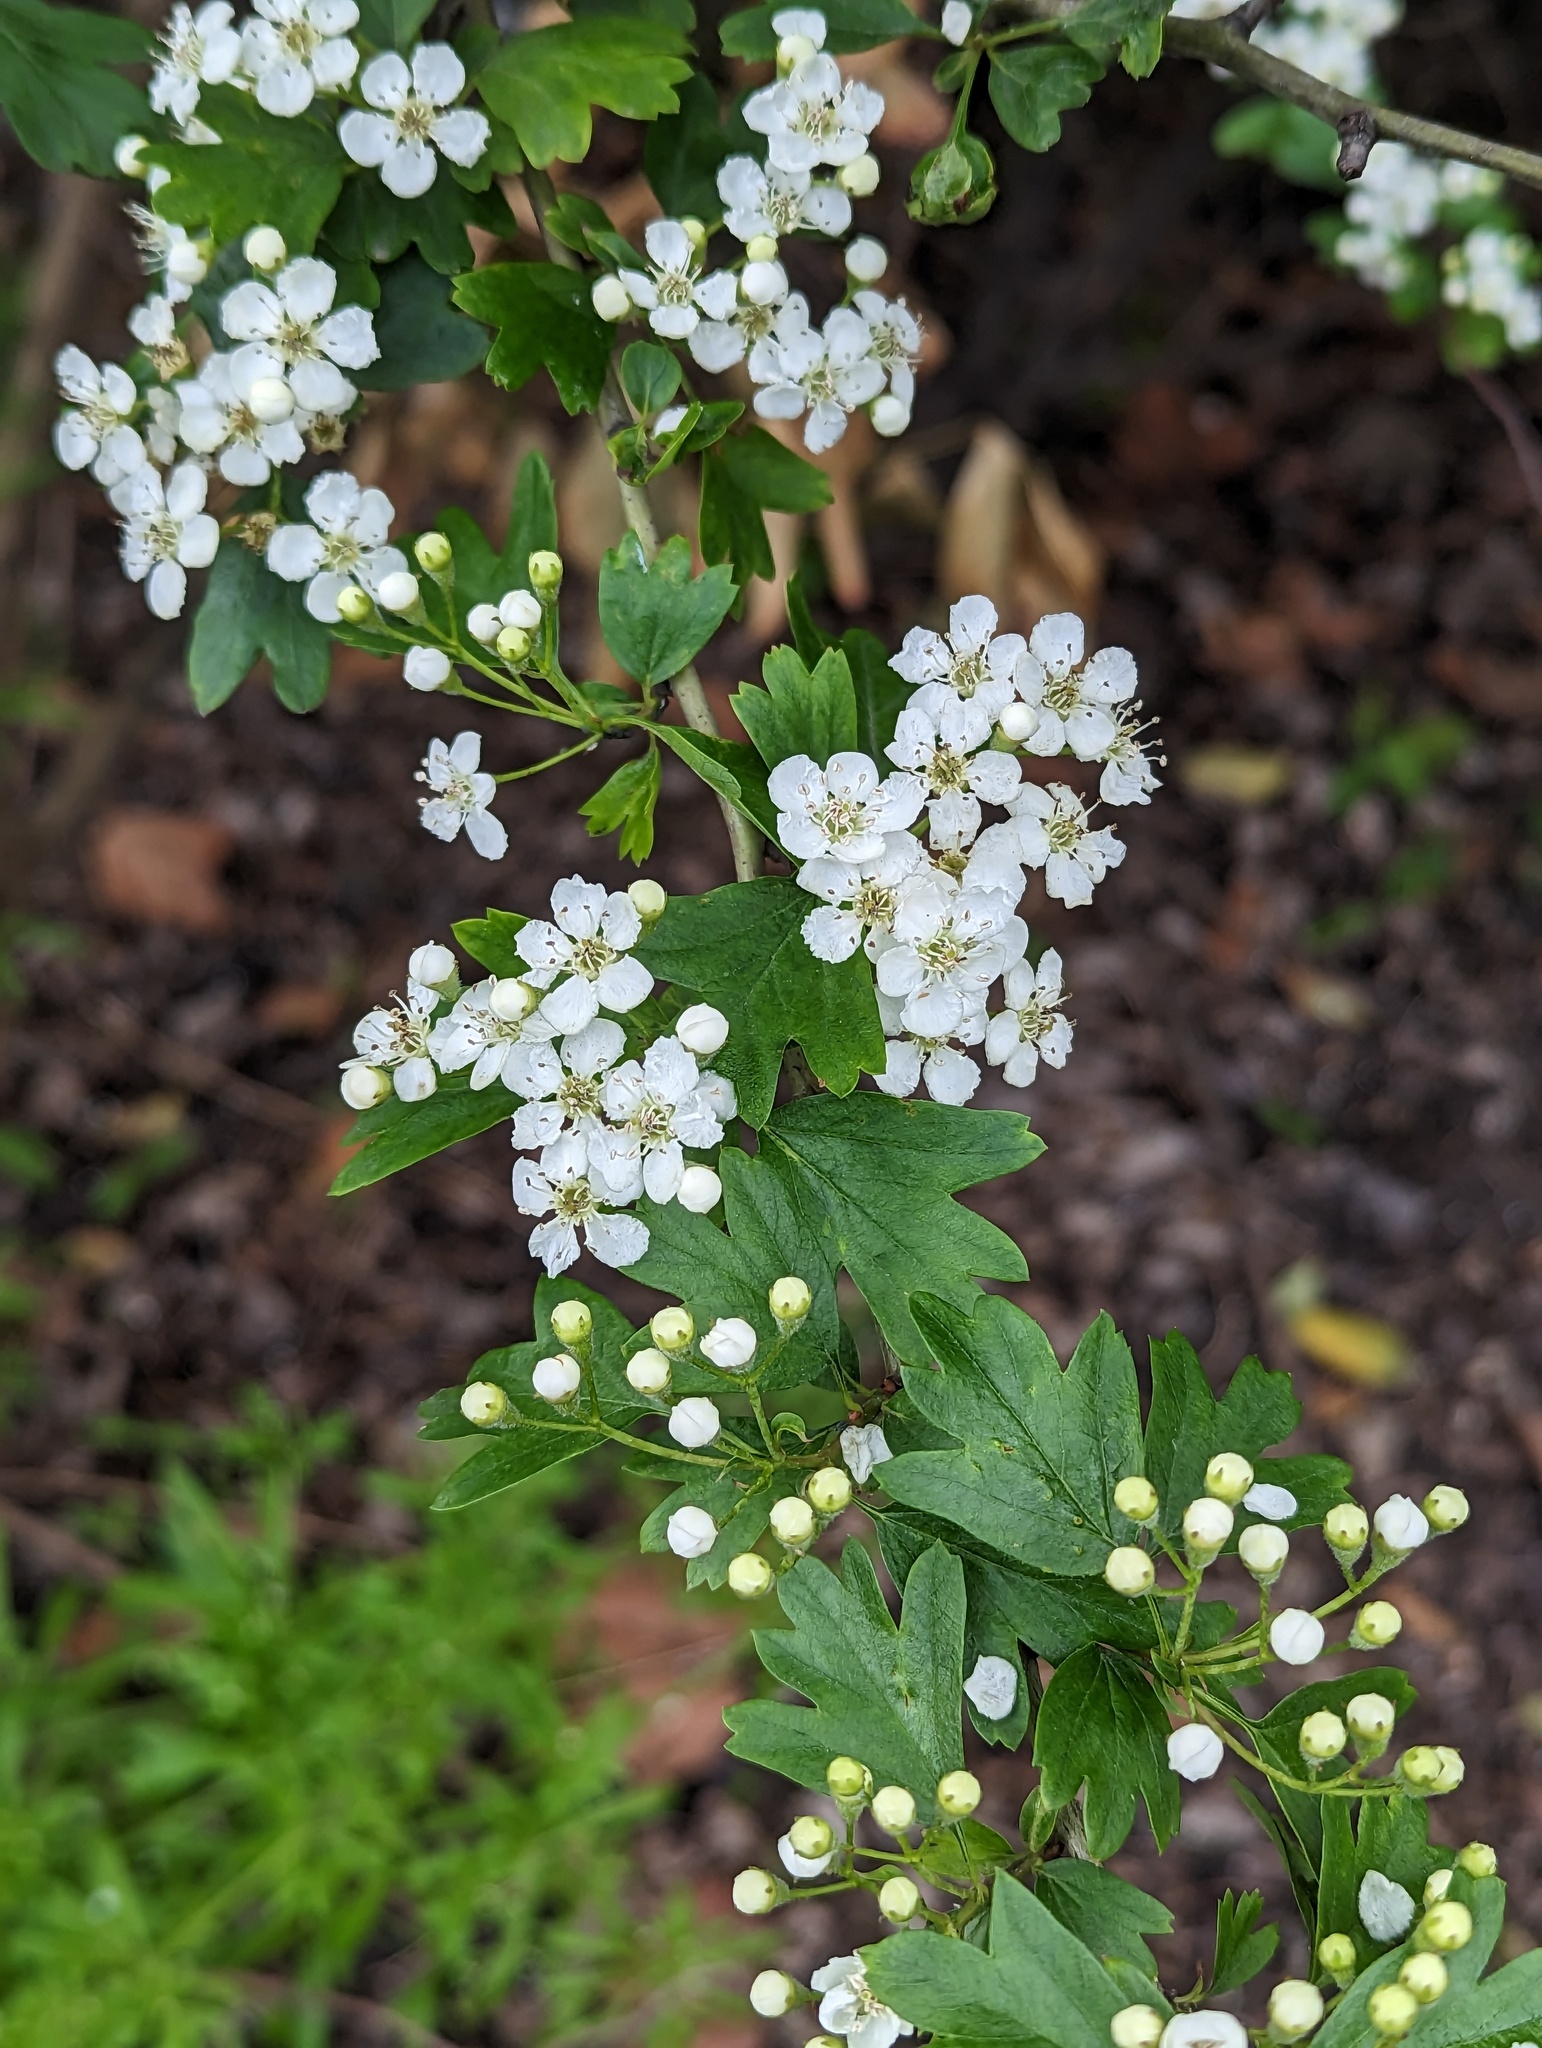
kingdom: Plantae
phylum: Tracheophyta
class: Magnoliopsida
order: Rosales
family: Rosaceae
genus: Crataegus
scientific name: Crataegus monogyna
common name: Hawthorn
